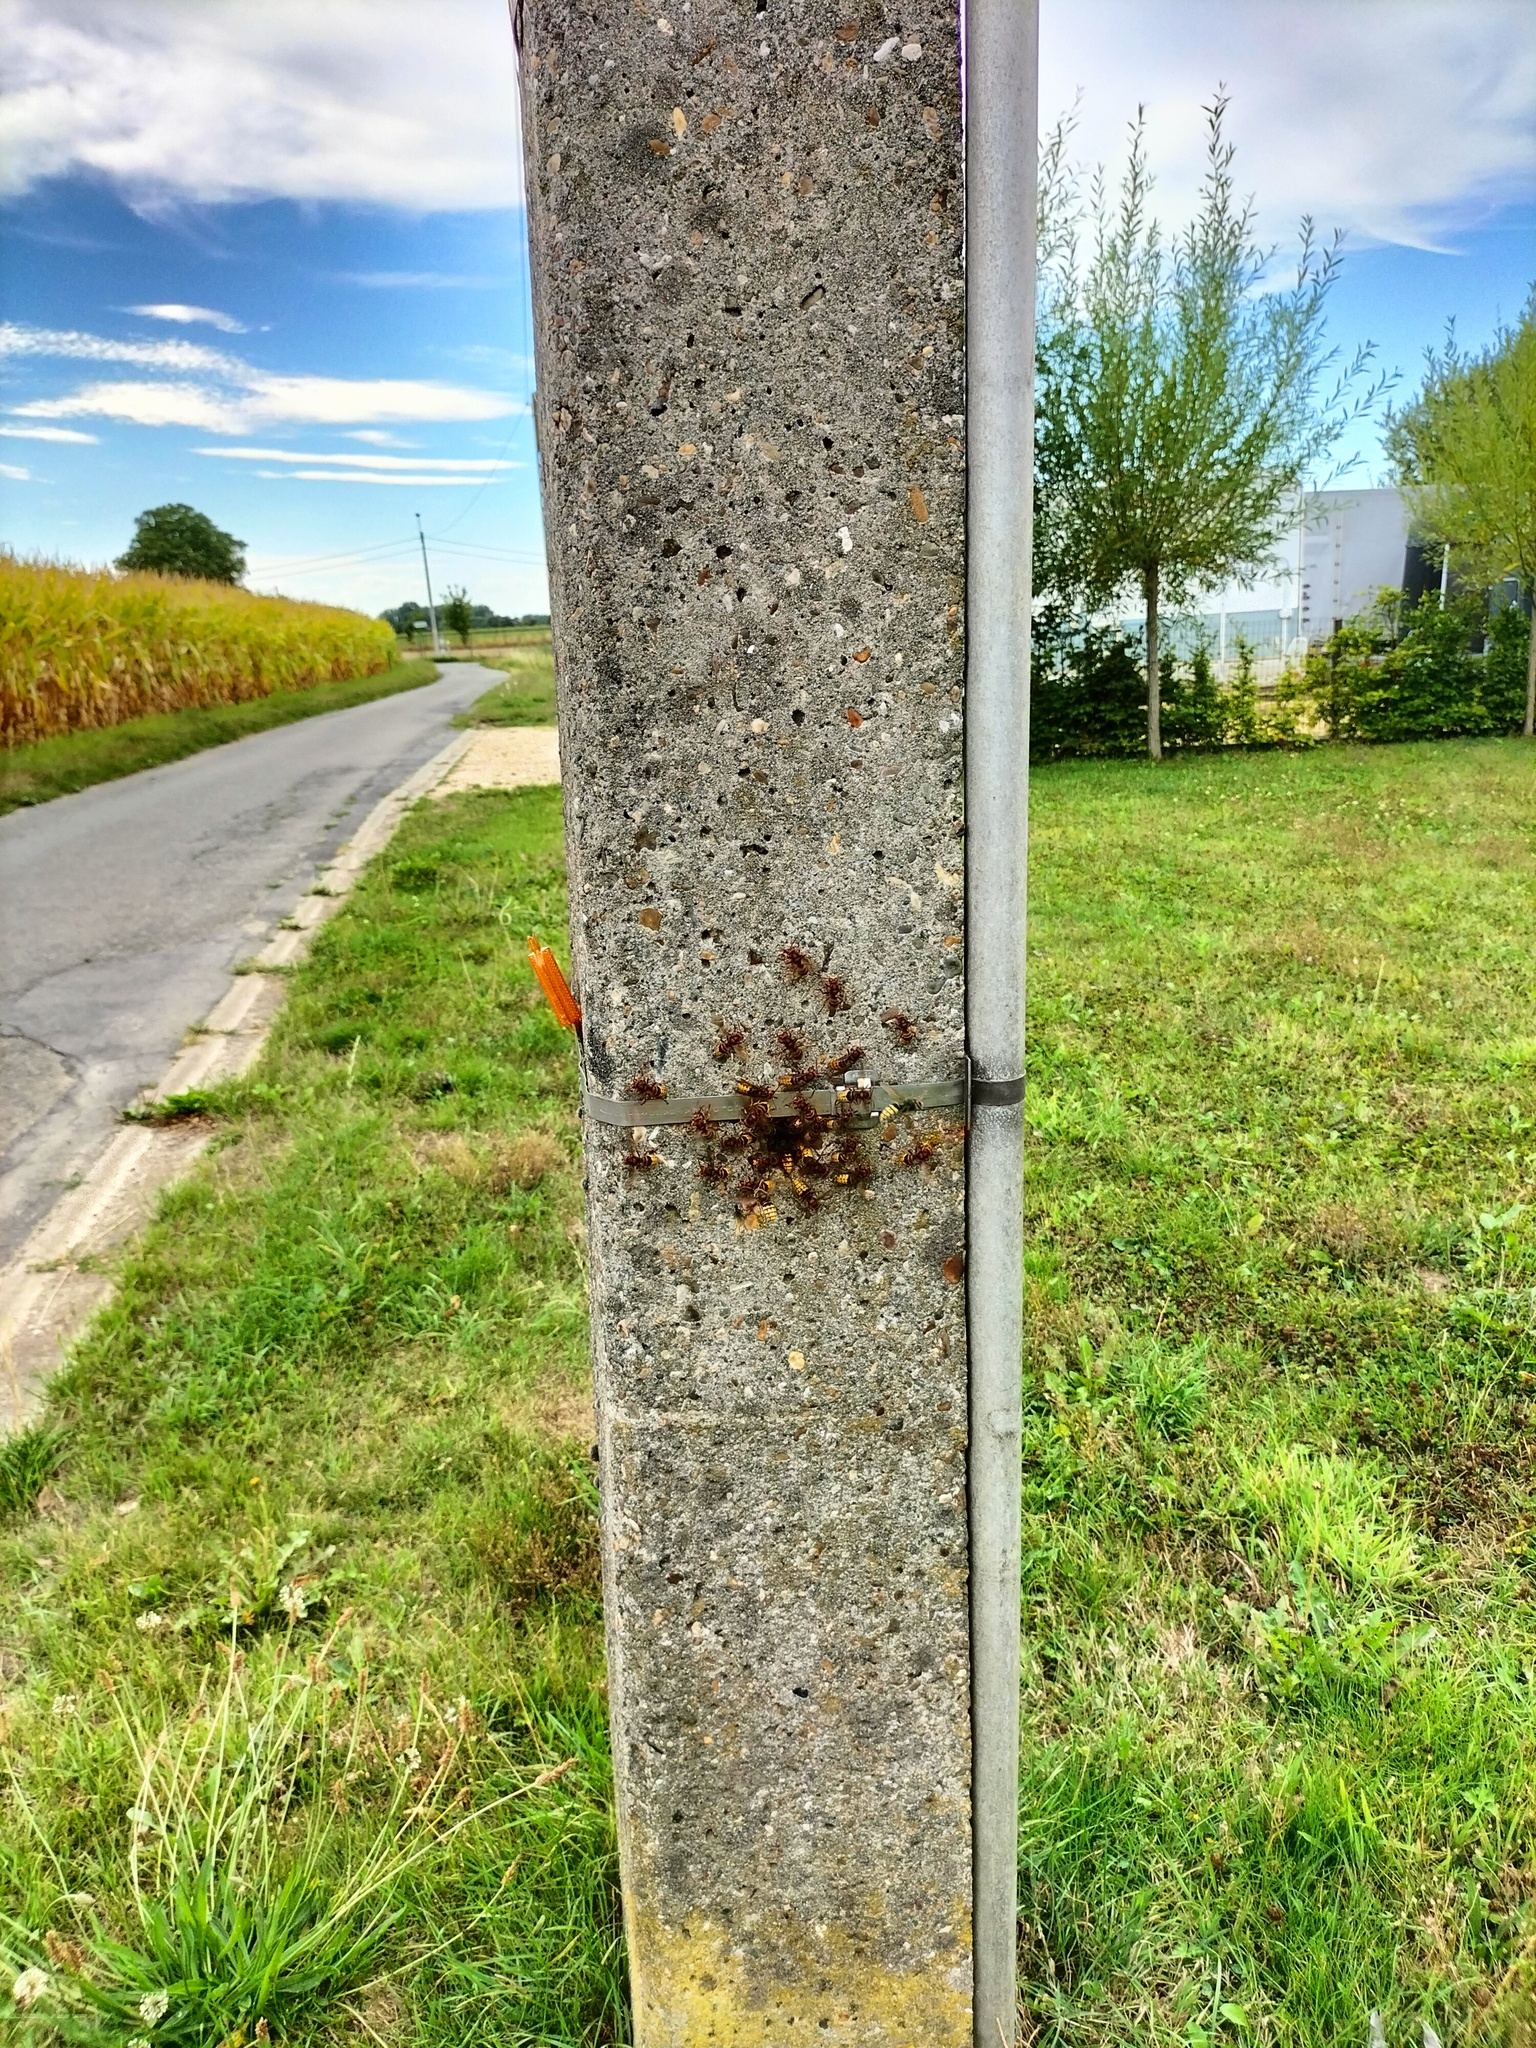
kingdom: Animalia
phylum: Arthropoda
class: Insecta
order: Hymenoptera
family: Vespidae
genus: Vespa
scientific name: Vespa crabro
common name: Hornet
